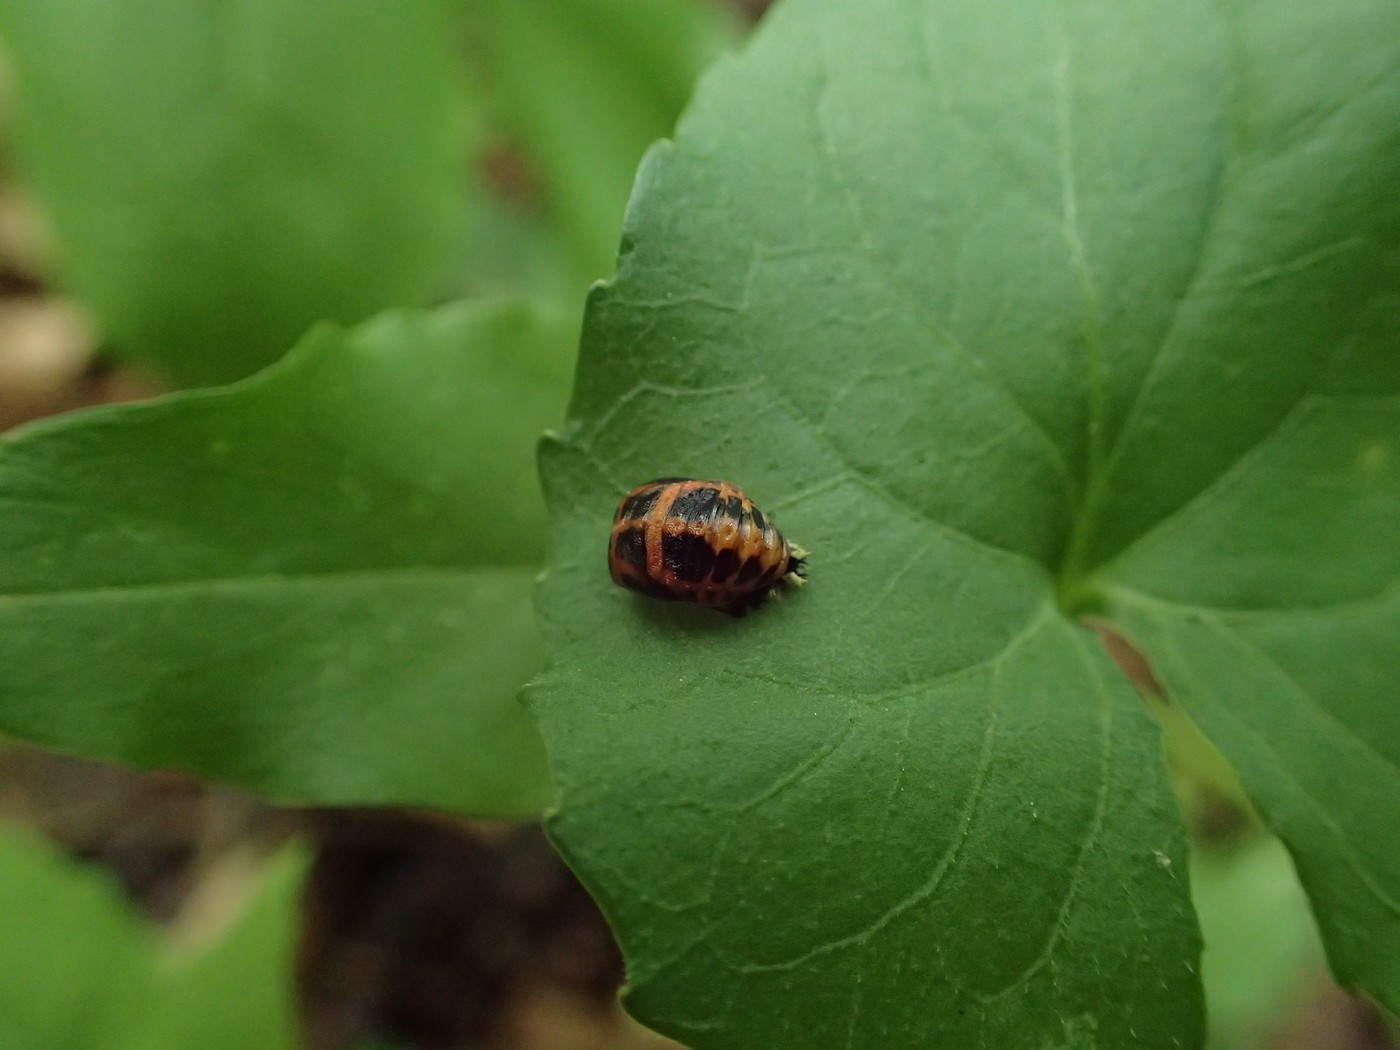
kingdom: Animalia
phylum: Arthropoda
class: Insecta
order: Coleoptera
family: Coccinellidae
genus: Harmonia
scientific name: Harmonia axyridis
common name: Harlequin ladybird
